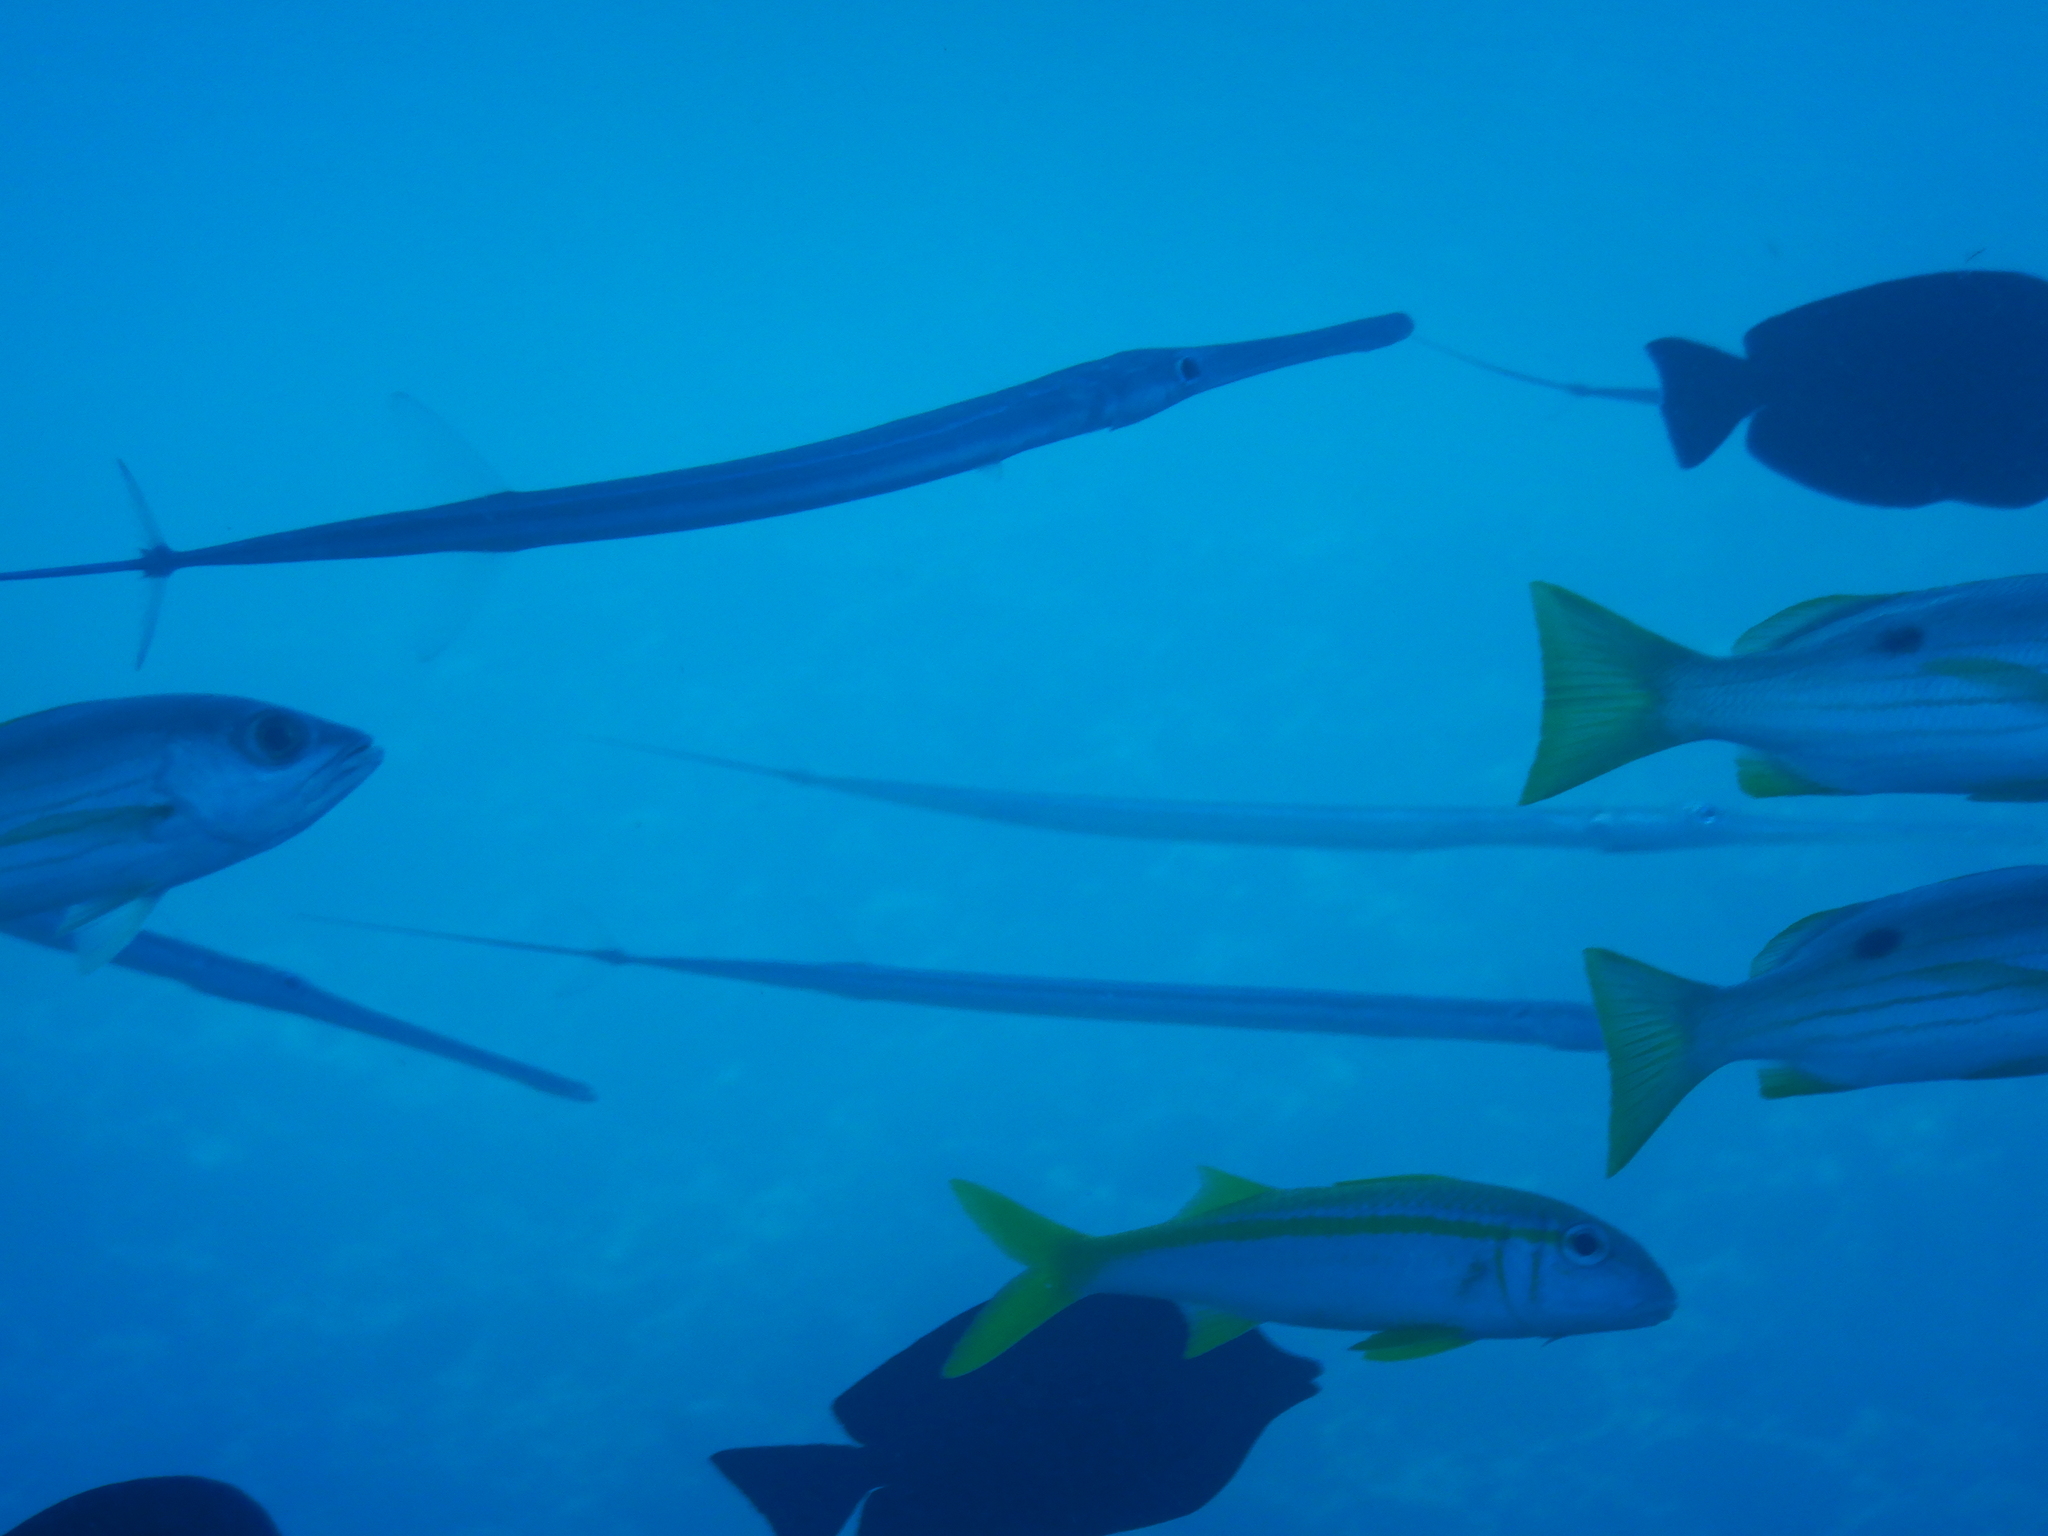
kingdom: Animalia
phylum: Chordata
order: Perciformes
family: Mullidae
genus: Mulloidichthys
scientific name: Mulloidichthys vanicolensis
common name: Yellowfin goatfish
